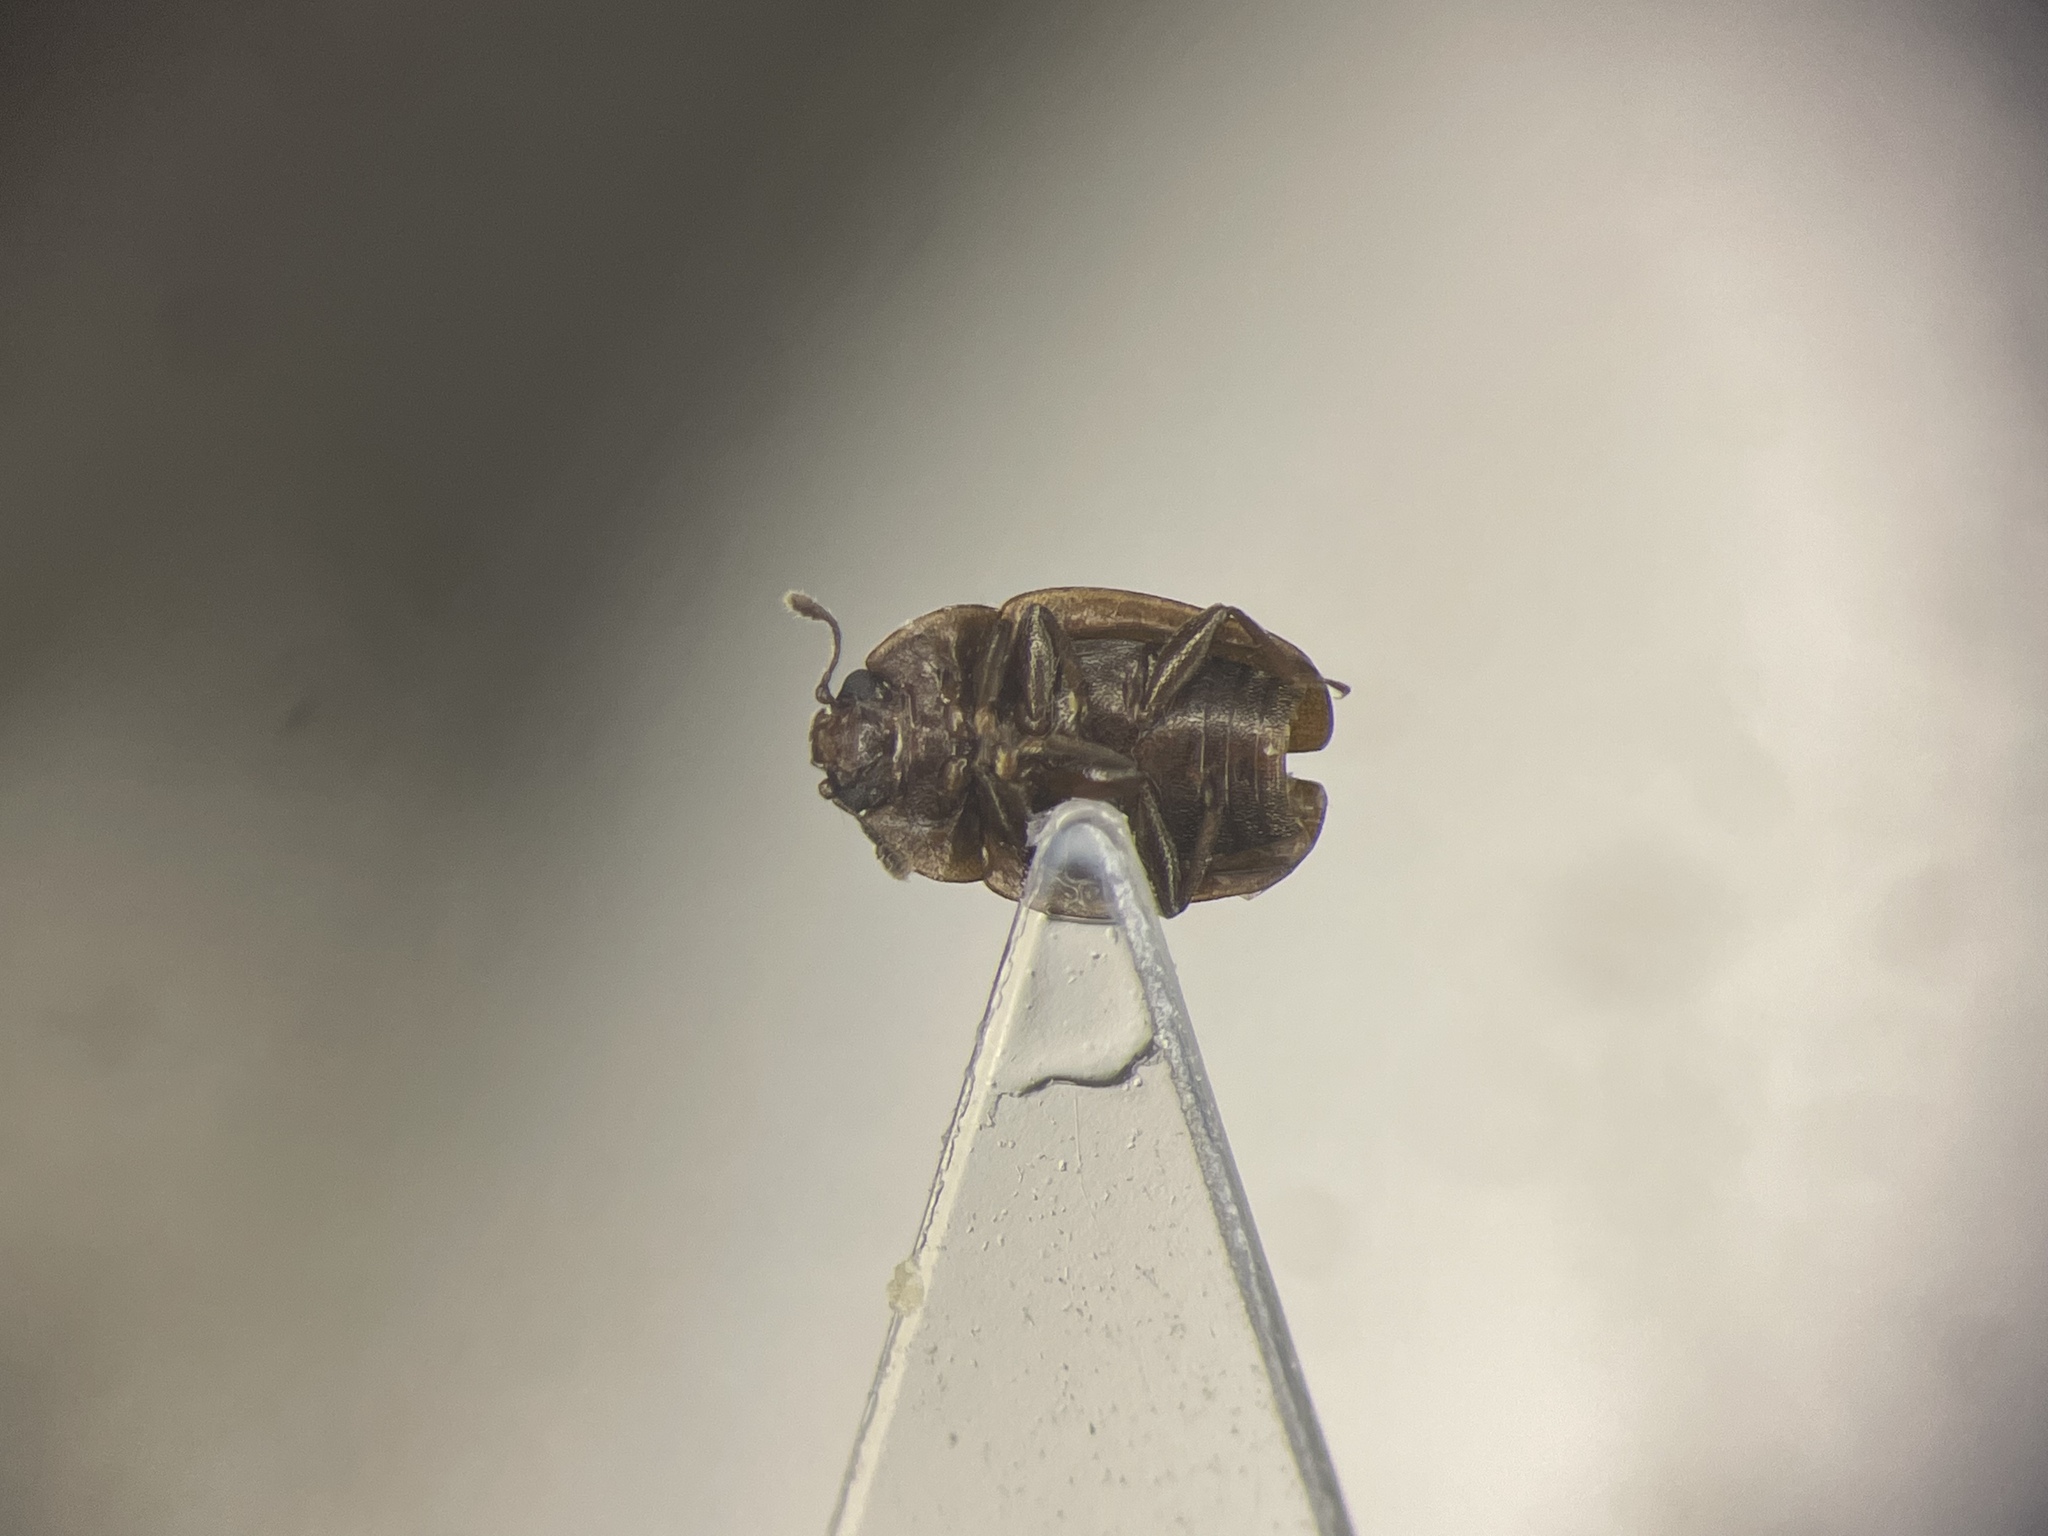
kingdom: Animalia
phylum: Arthropoda
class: Insecta
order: Coleoptera
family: Nitidulidae
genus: Epuraea
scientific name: Epuraea populi
